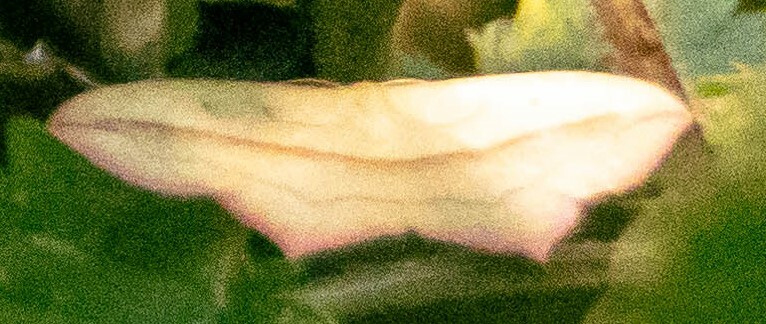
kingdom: Animalia
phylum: Arthropoda
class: Insecta
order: Lepidoptera
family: Geometridae
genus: Timandra
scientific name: Timandra comae
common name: Blood-vein
